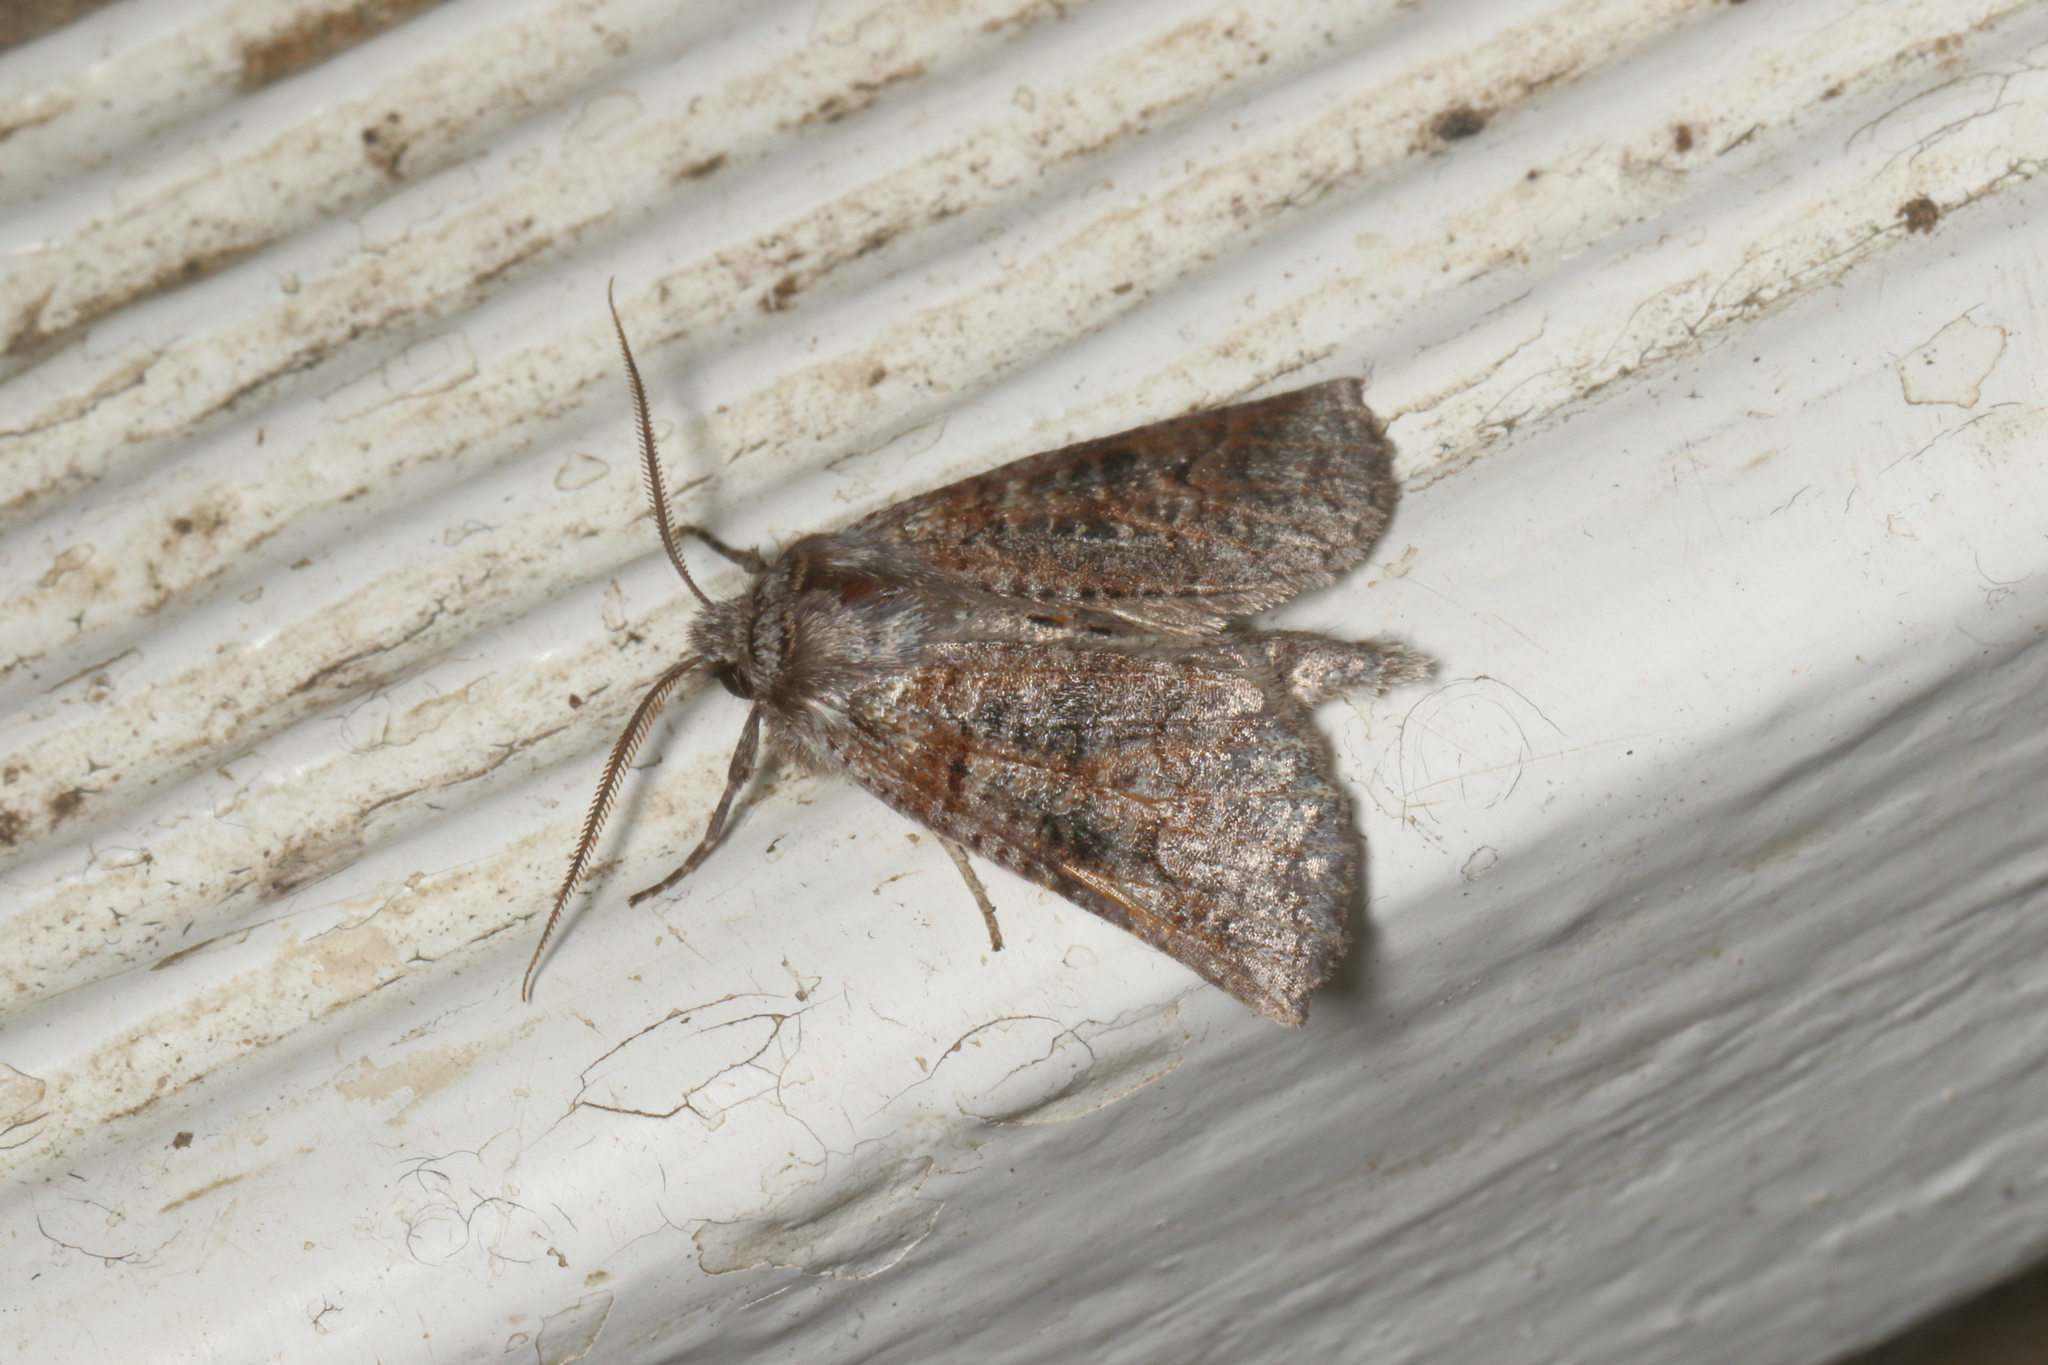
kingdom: Animalia
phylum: Arthropoda
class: Insecta
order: Lepidoptera
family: Geometridae
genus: Declana
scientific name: Declana
